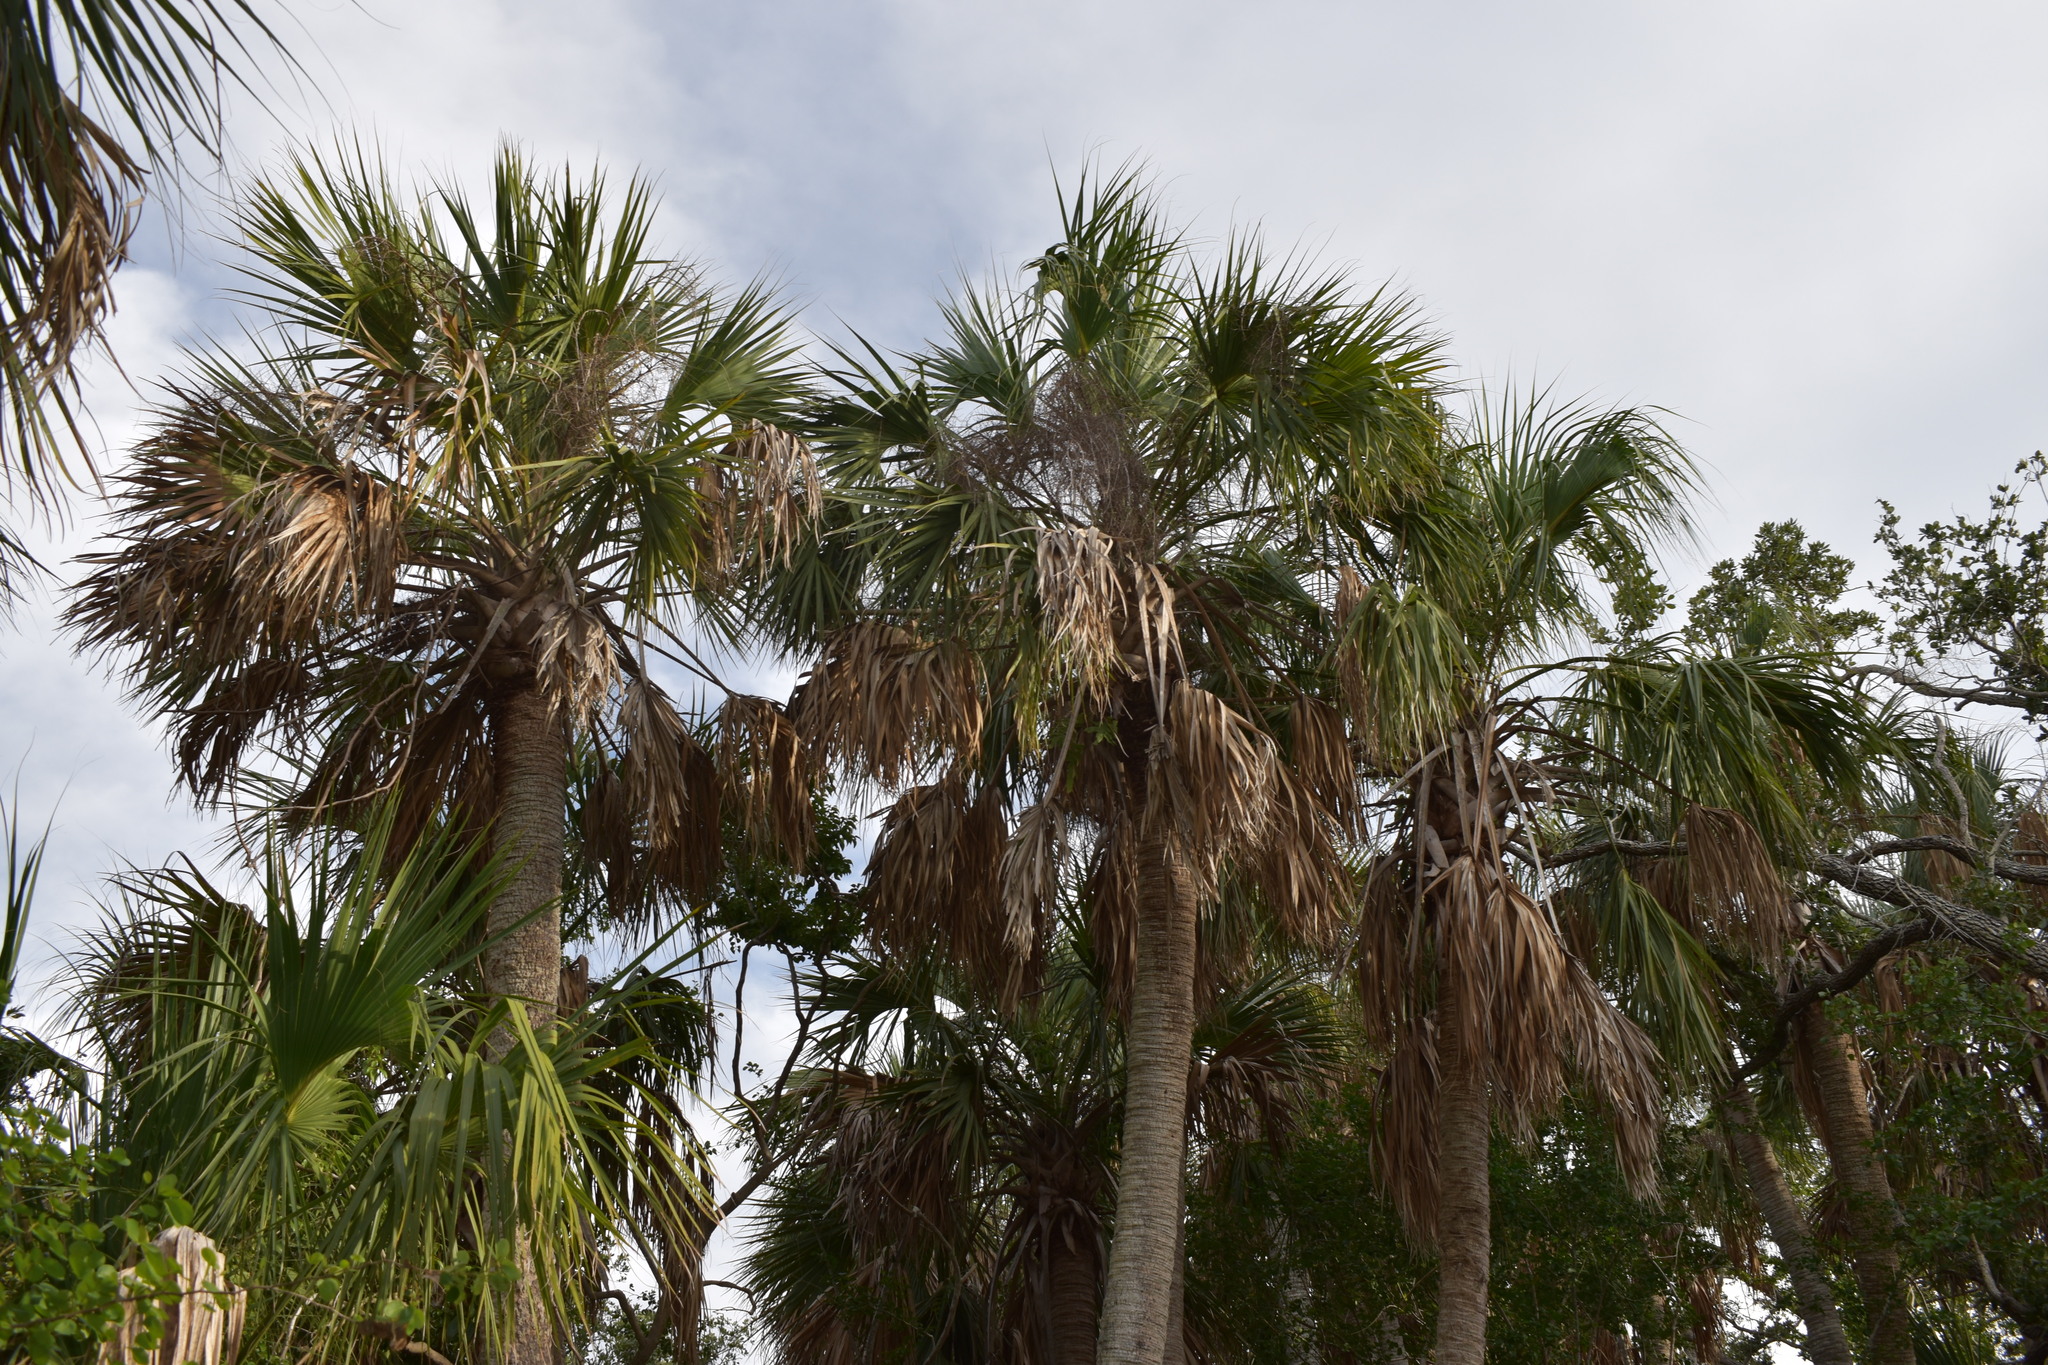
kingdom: Plantae
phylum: Tracheophyta
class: Liliopsida
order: Arecales
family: Arecaceae
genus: Sabal
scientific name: Sabal palmetto
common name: Blue palmetto
